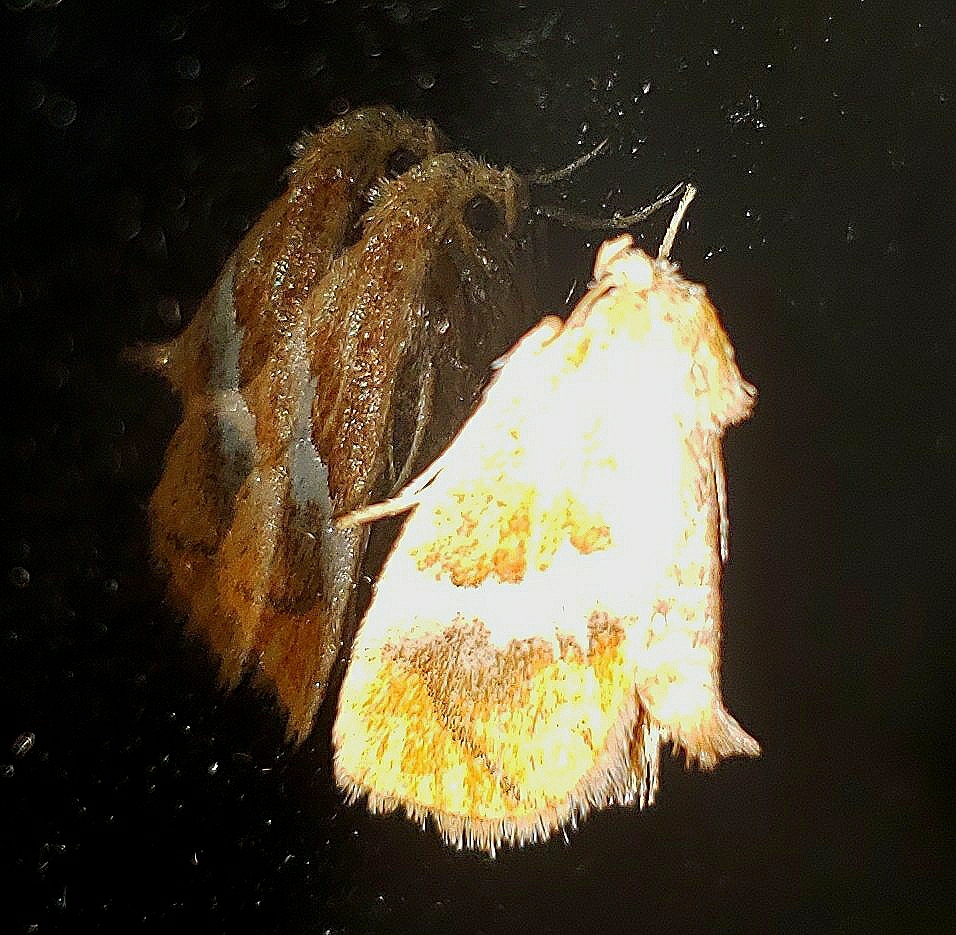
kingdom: Animalia
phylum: Arthropoda
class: Insecta
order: Lepidoptera
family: Limacodidae
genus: Lithacodes
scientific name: Lithacodes fasciola
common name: Yellow-shouldered slug moth
